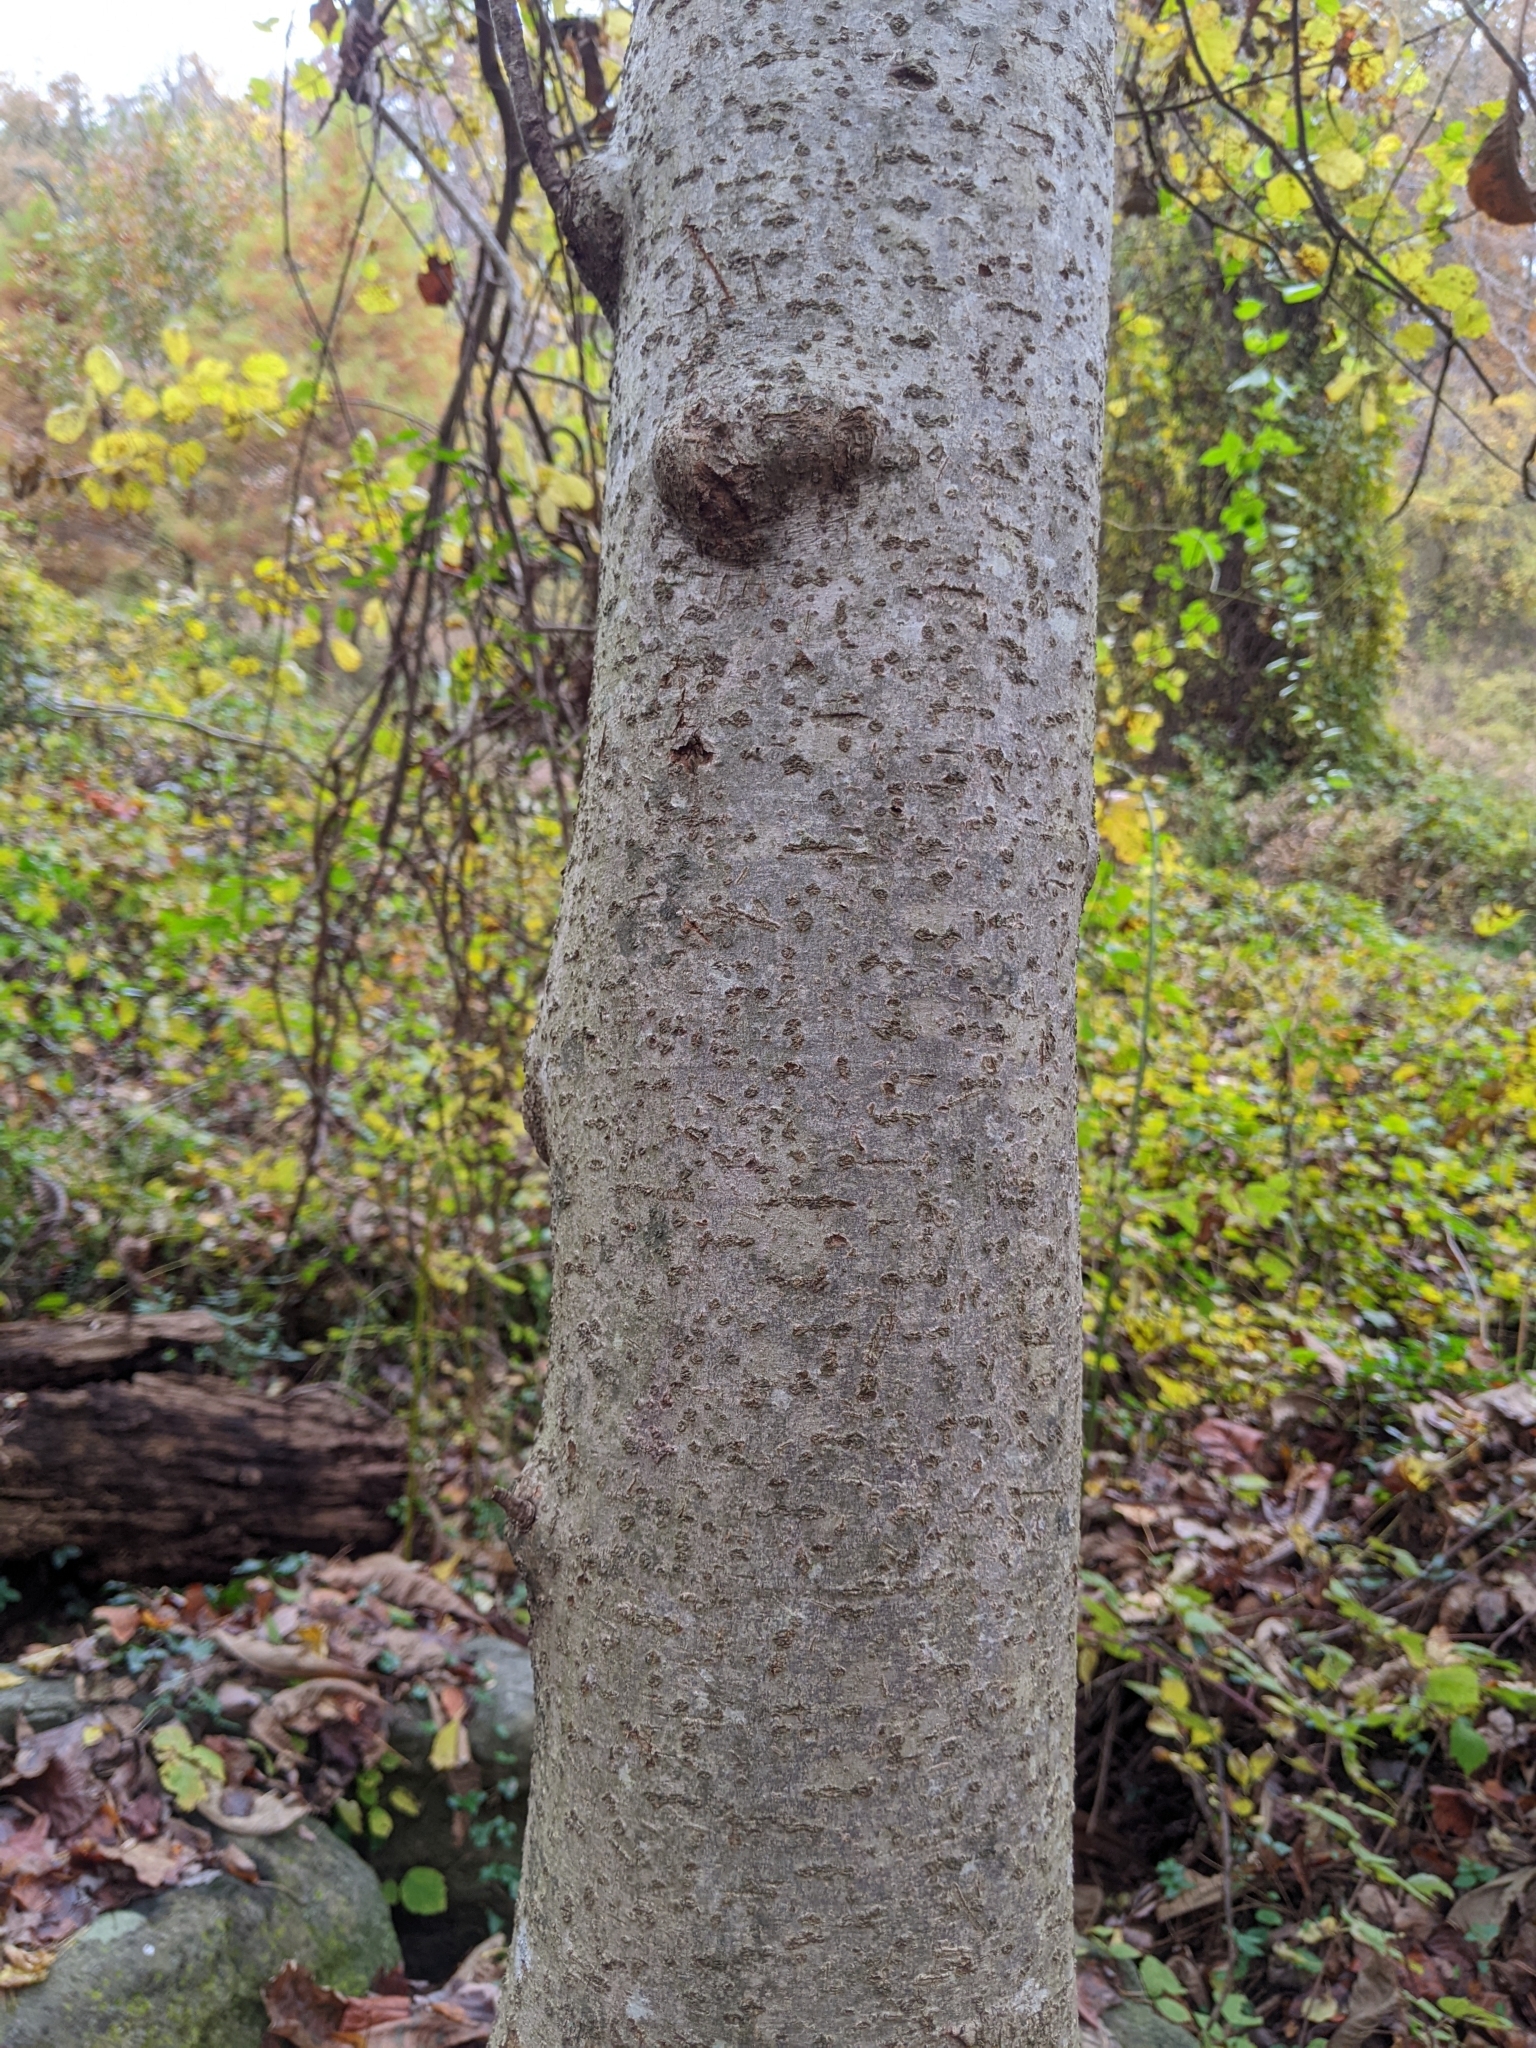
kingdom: Plantae
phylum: Tracheophyta
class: Magnoliopsida
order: Magnoliales
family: Magnoliaceae
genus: Magnolia
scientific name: Magnolia tripetala
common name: Umbrella magnolia
